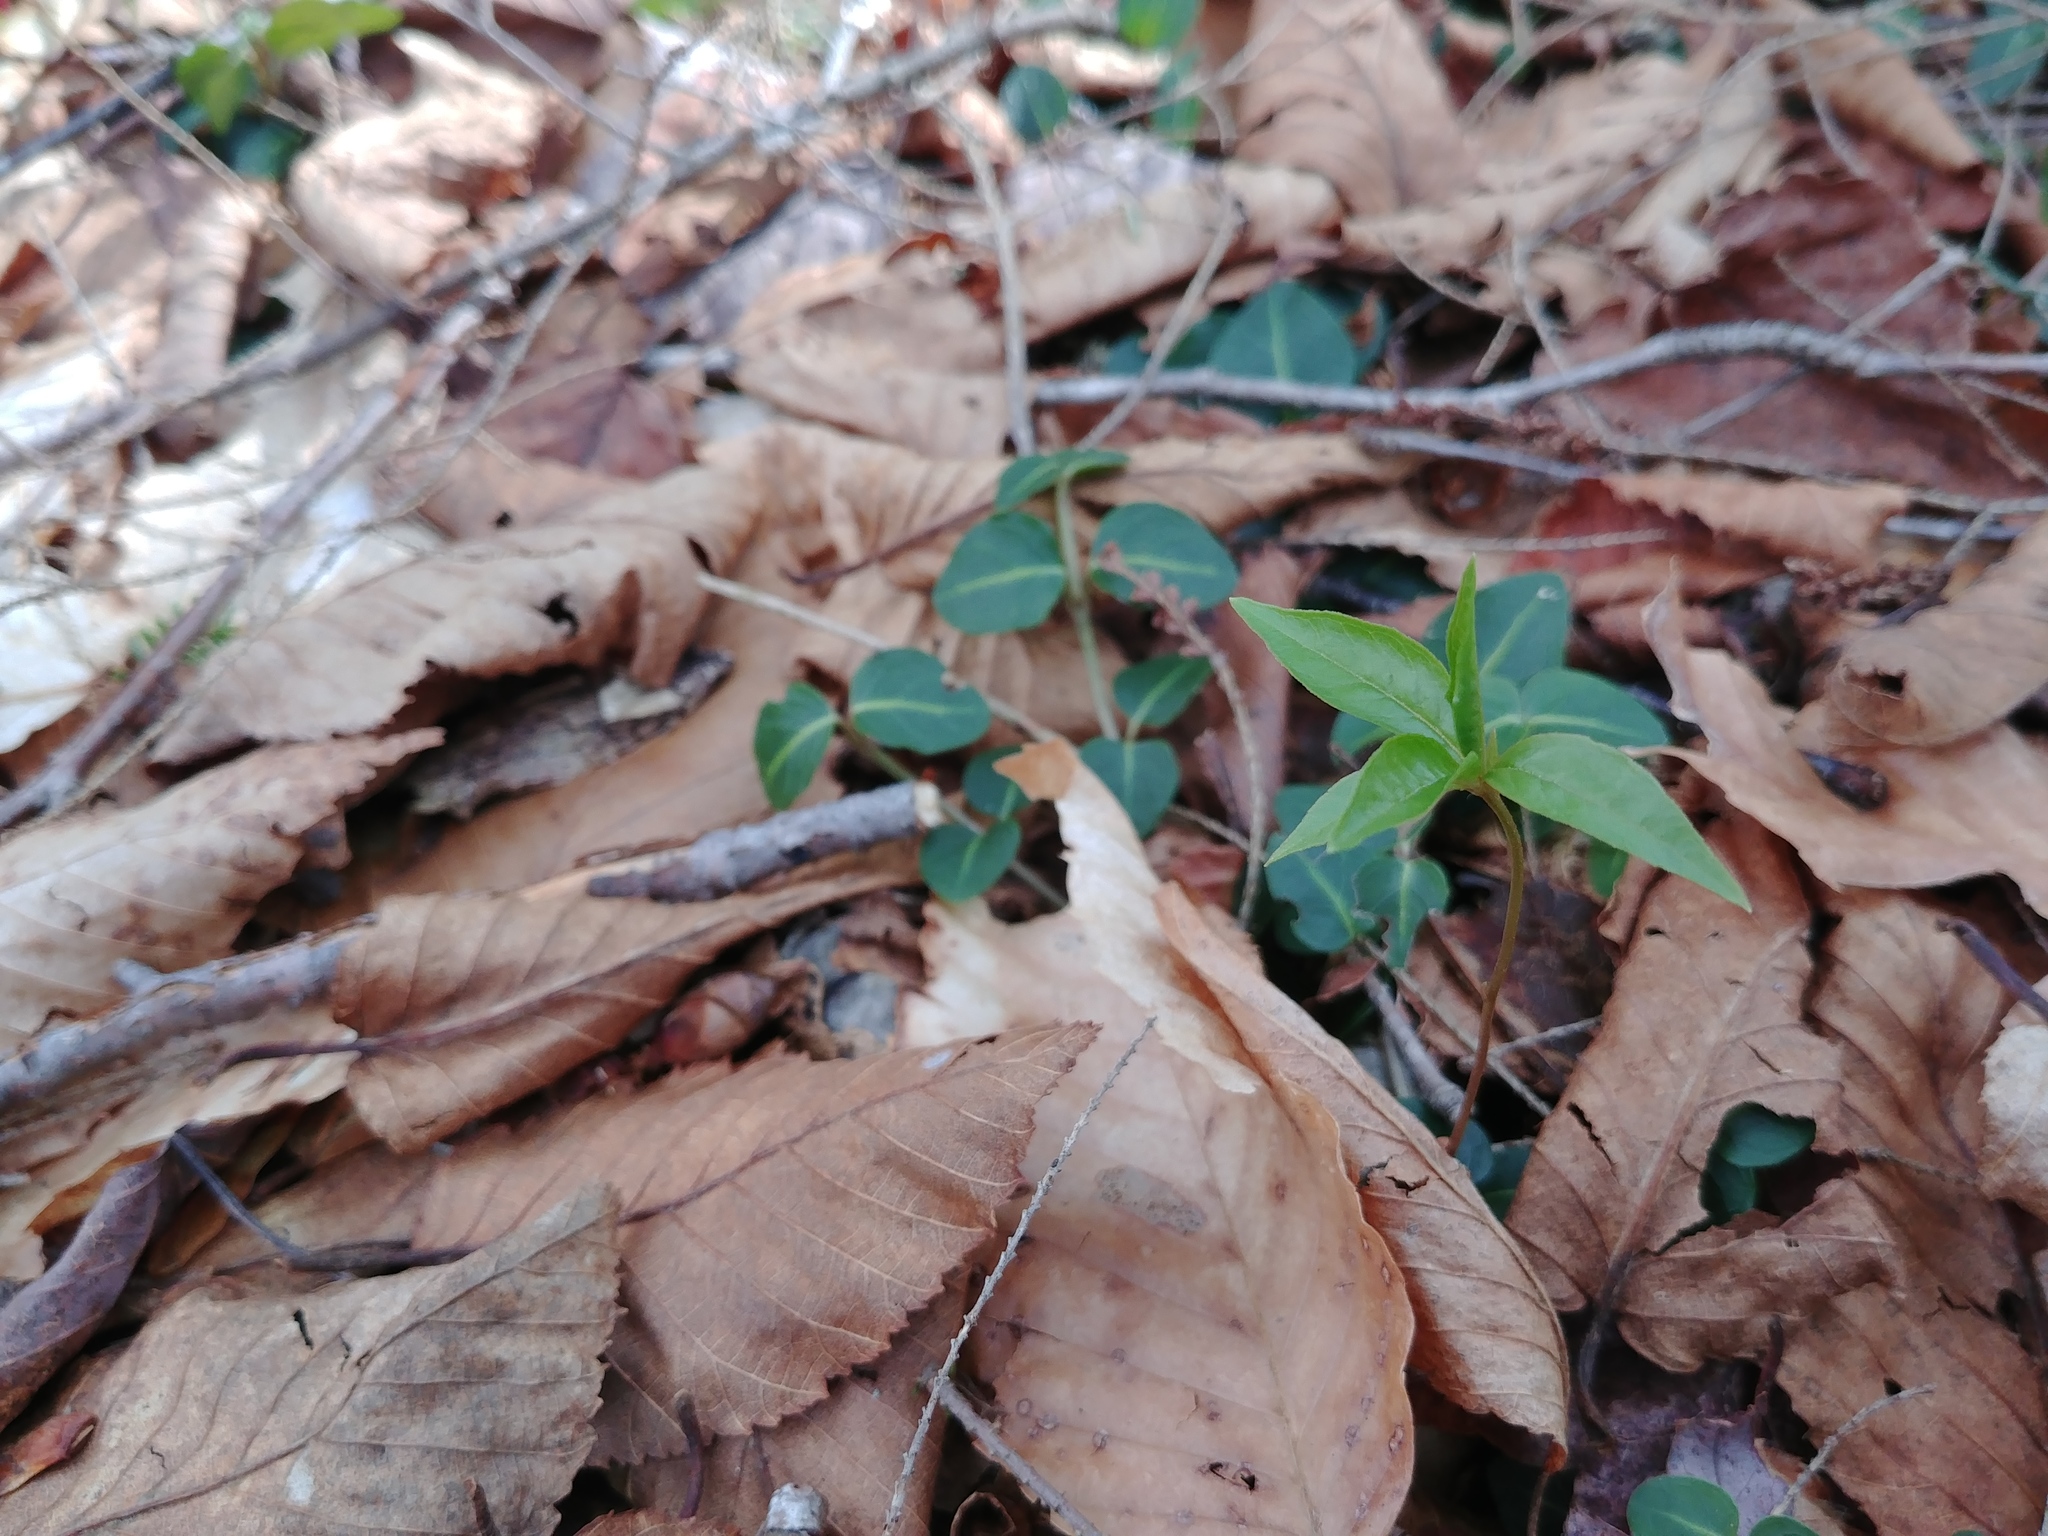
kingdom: Plantae
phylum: Tracheophyta
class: Magnoliopsida
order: Ericales
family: Primulaceae
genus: Lysimachia
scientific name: Lysimachia borealis
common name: American starflower
